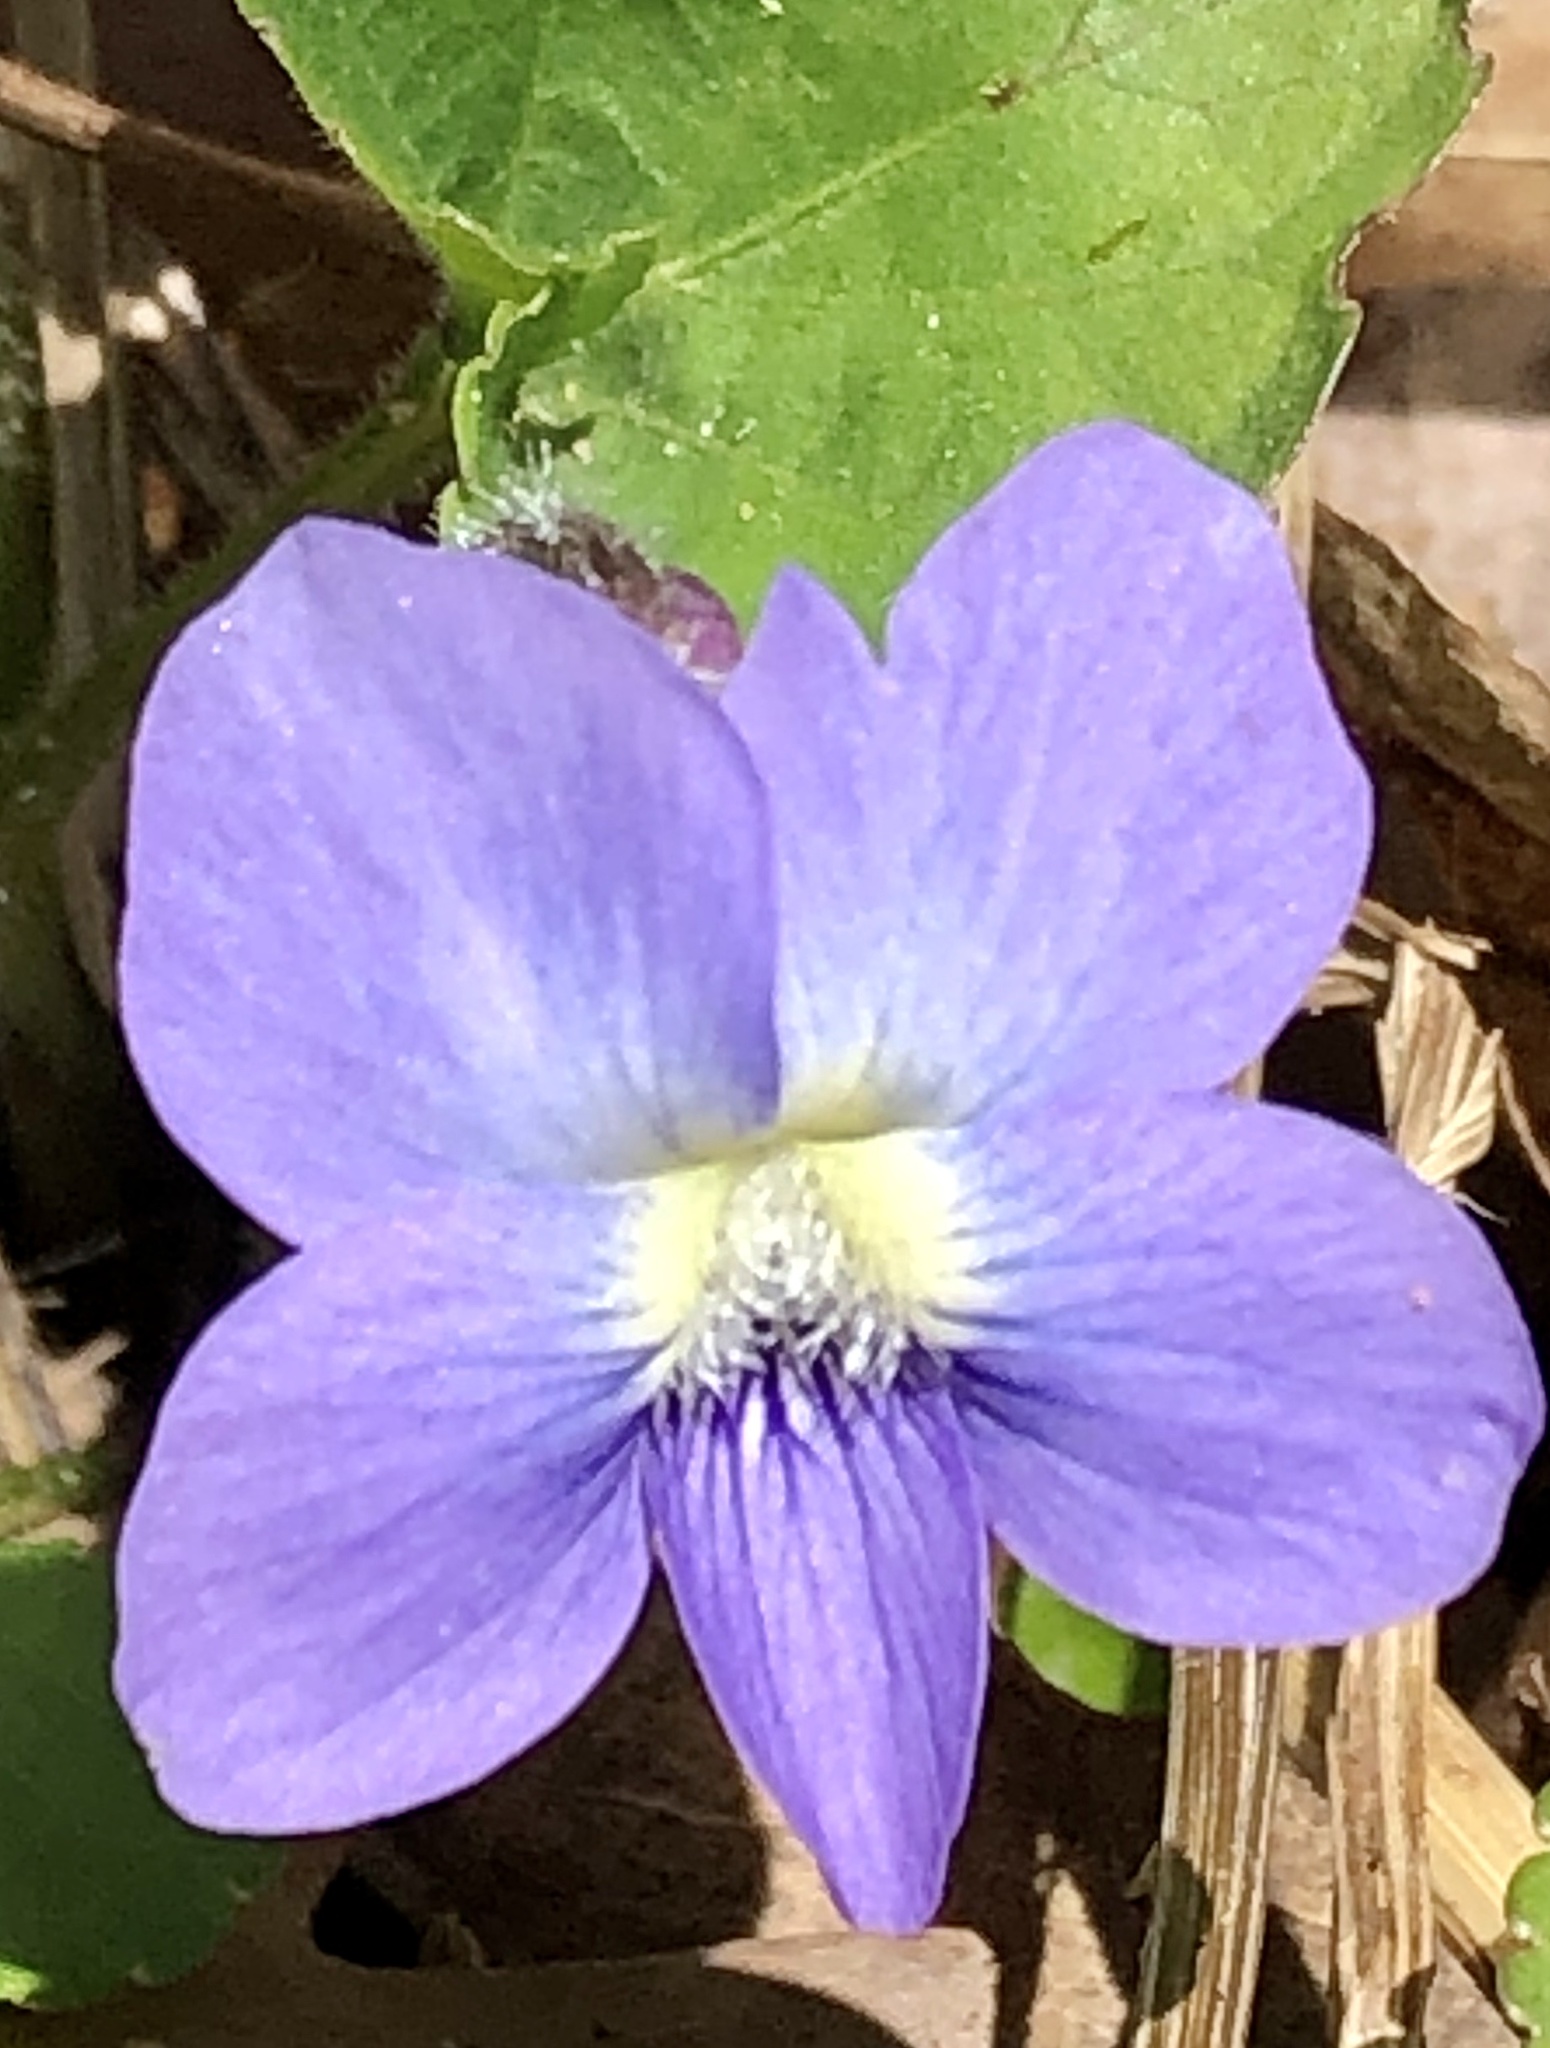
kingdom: Plantae
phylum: Tracheophyta
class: Magnoliopsida
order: Malpighiales
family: Violaceae
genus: Viola
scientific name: Viola sororia
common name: Dooryard violet
